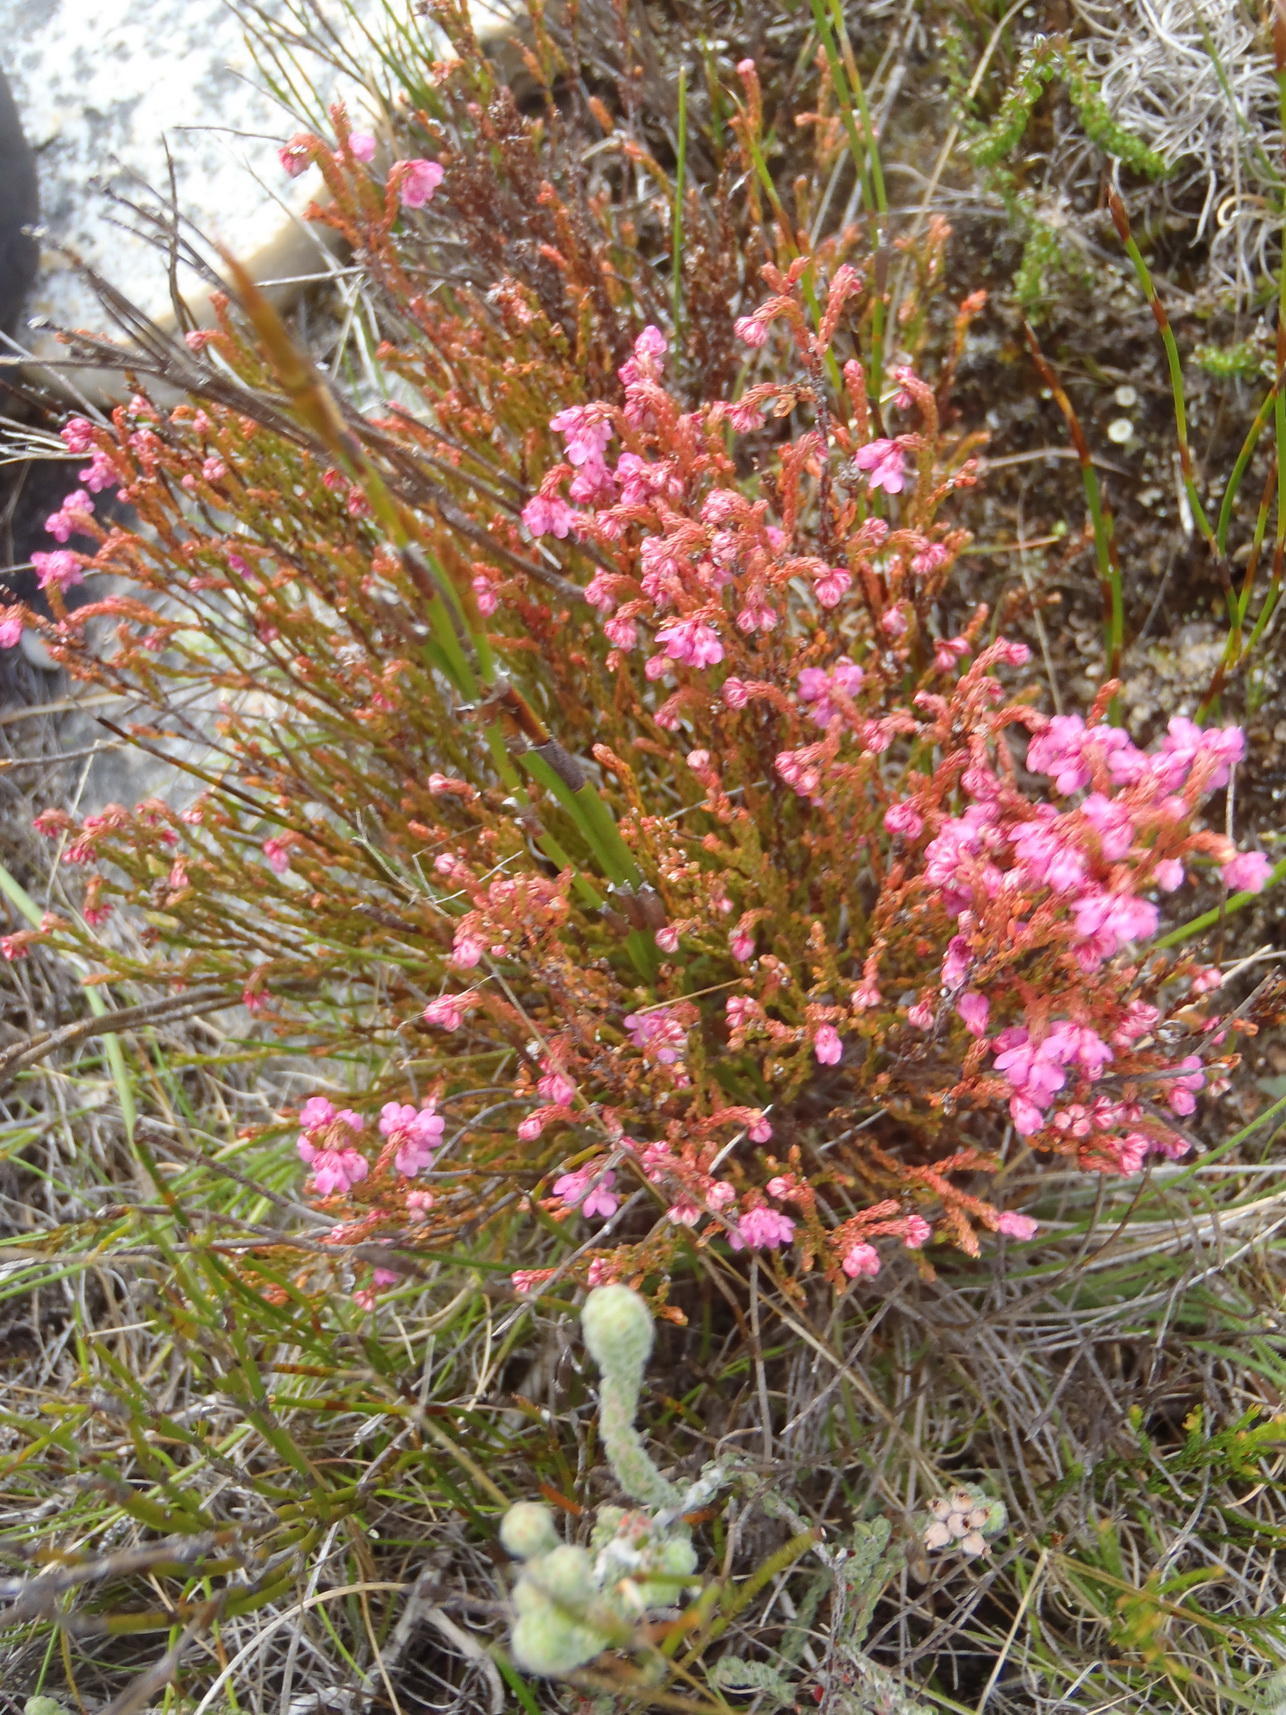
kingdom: Plantae
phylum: Tracheophyta
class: Magnoliopsida
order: Ericales
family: Ericaceae
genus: Erica
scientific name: Erica humifusa
